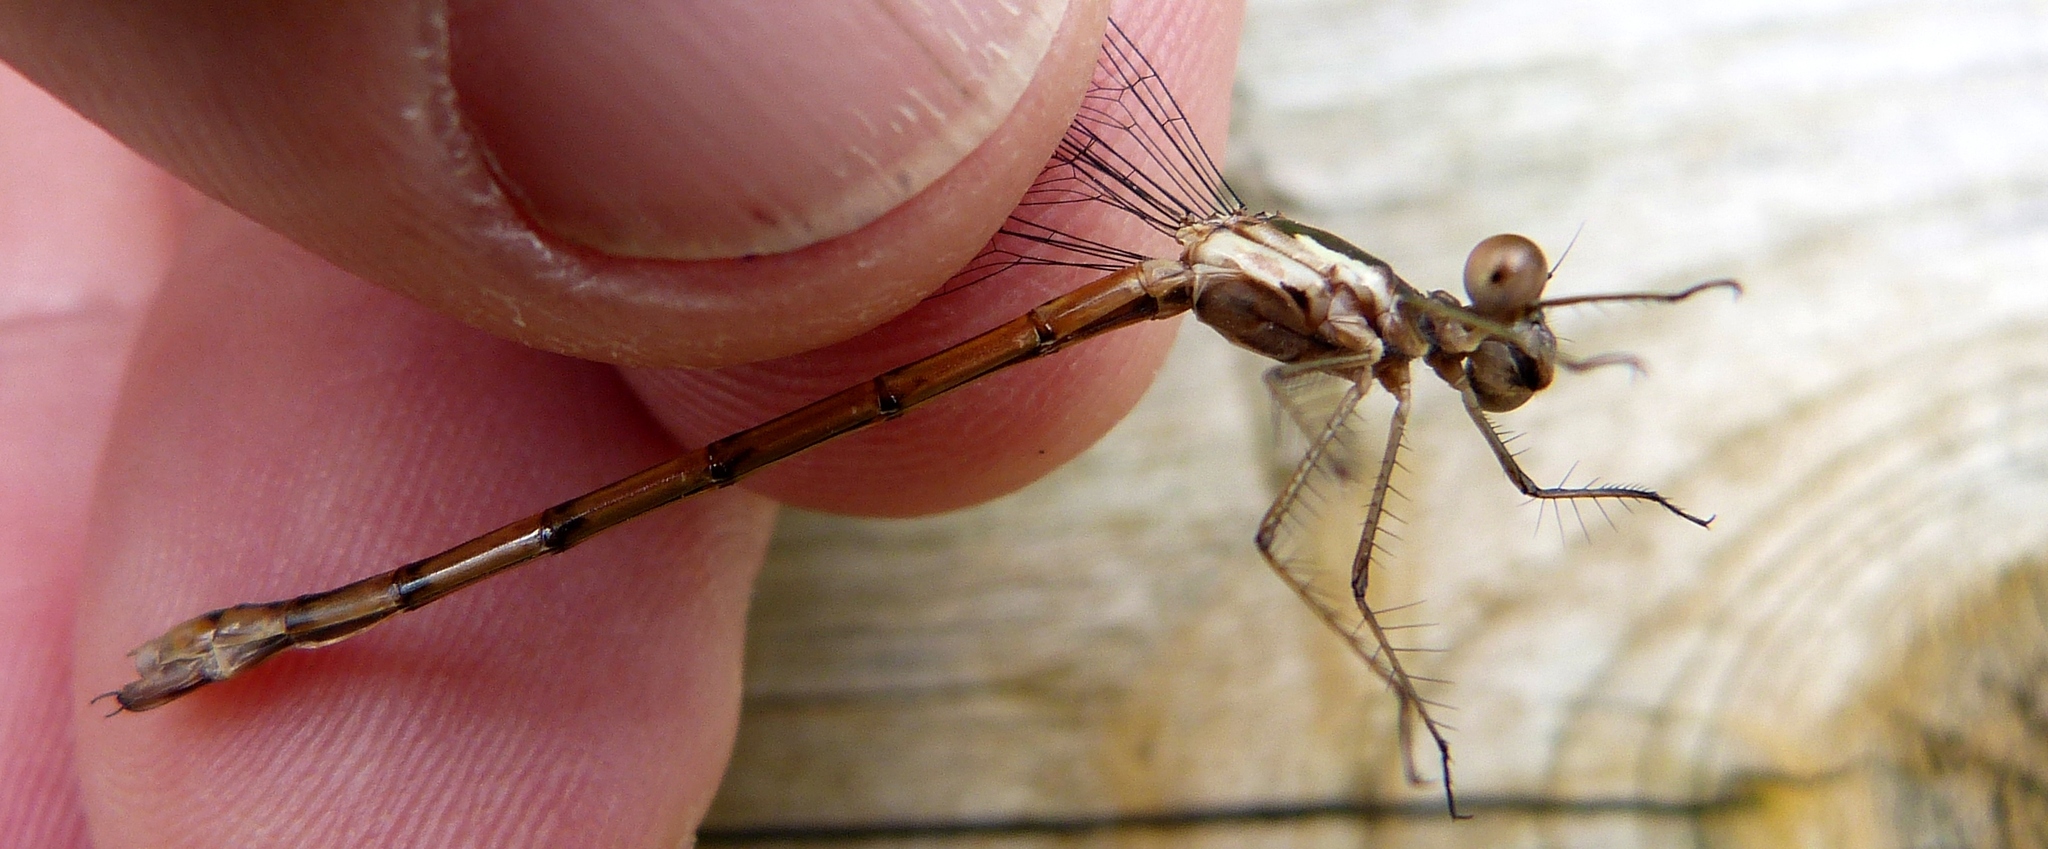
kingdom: Animalia
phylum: Arthropoda
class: Insecta
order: Odonata
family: Lestidae
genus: Lestes
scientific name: Lestes forcipatus
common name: Sweetflag spreadwing
